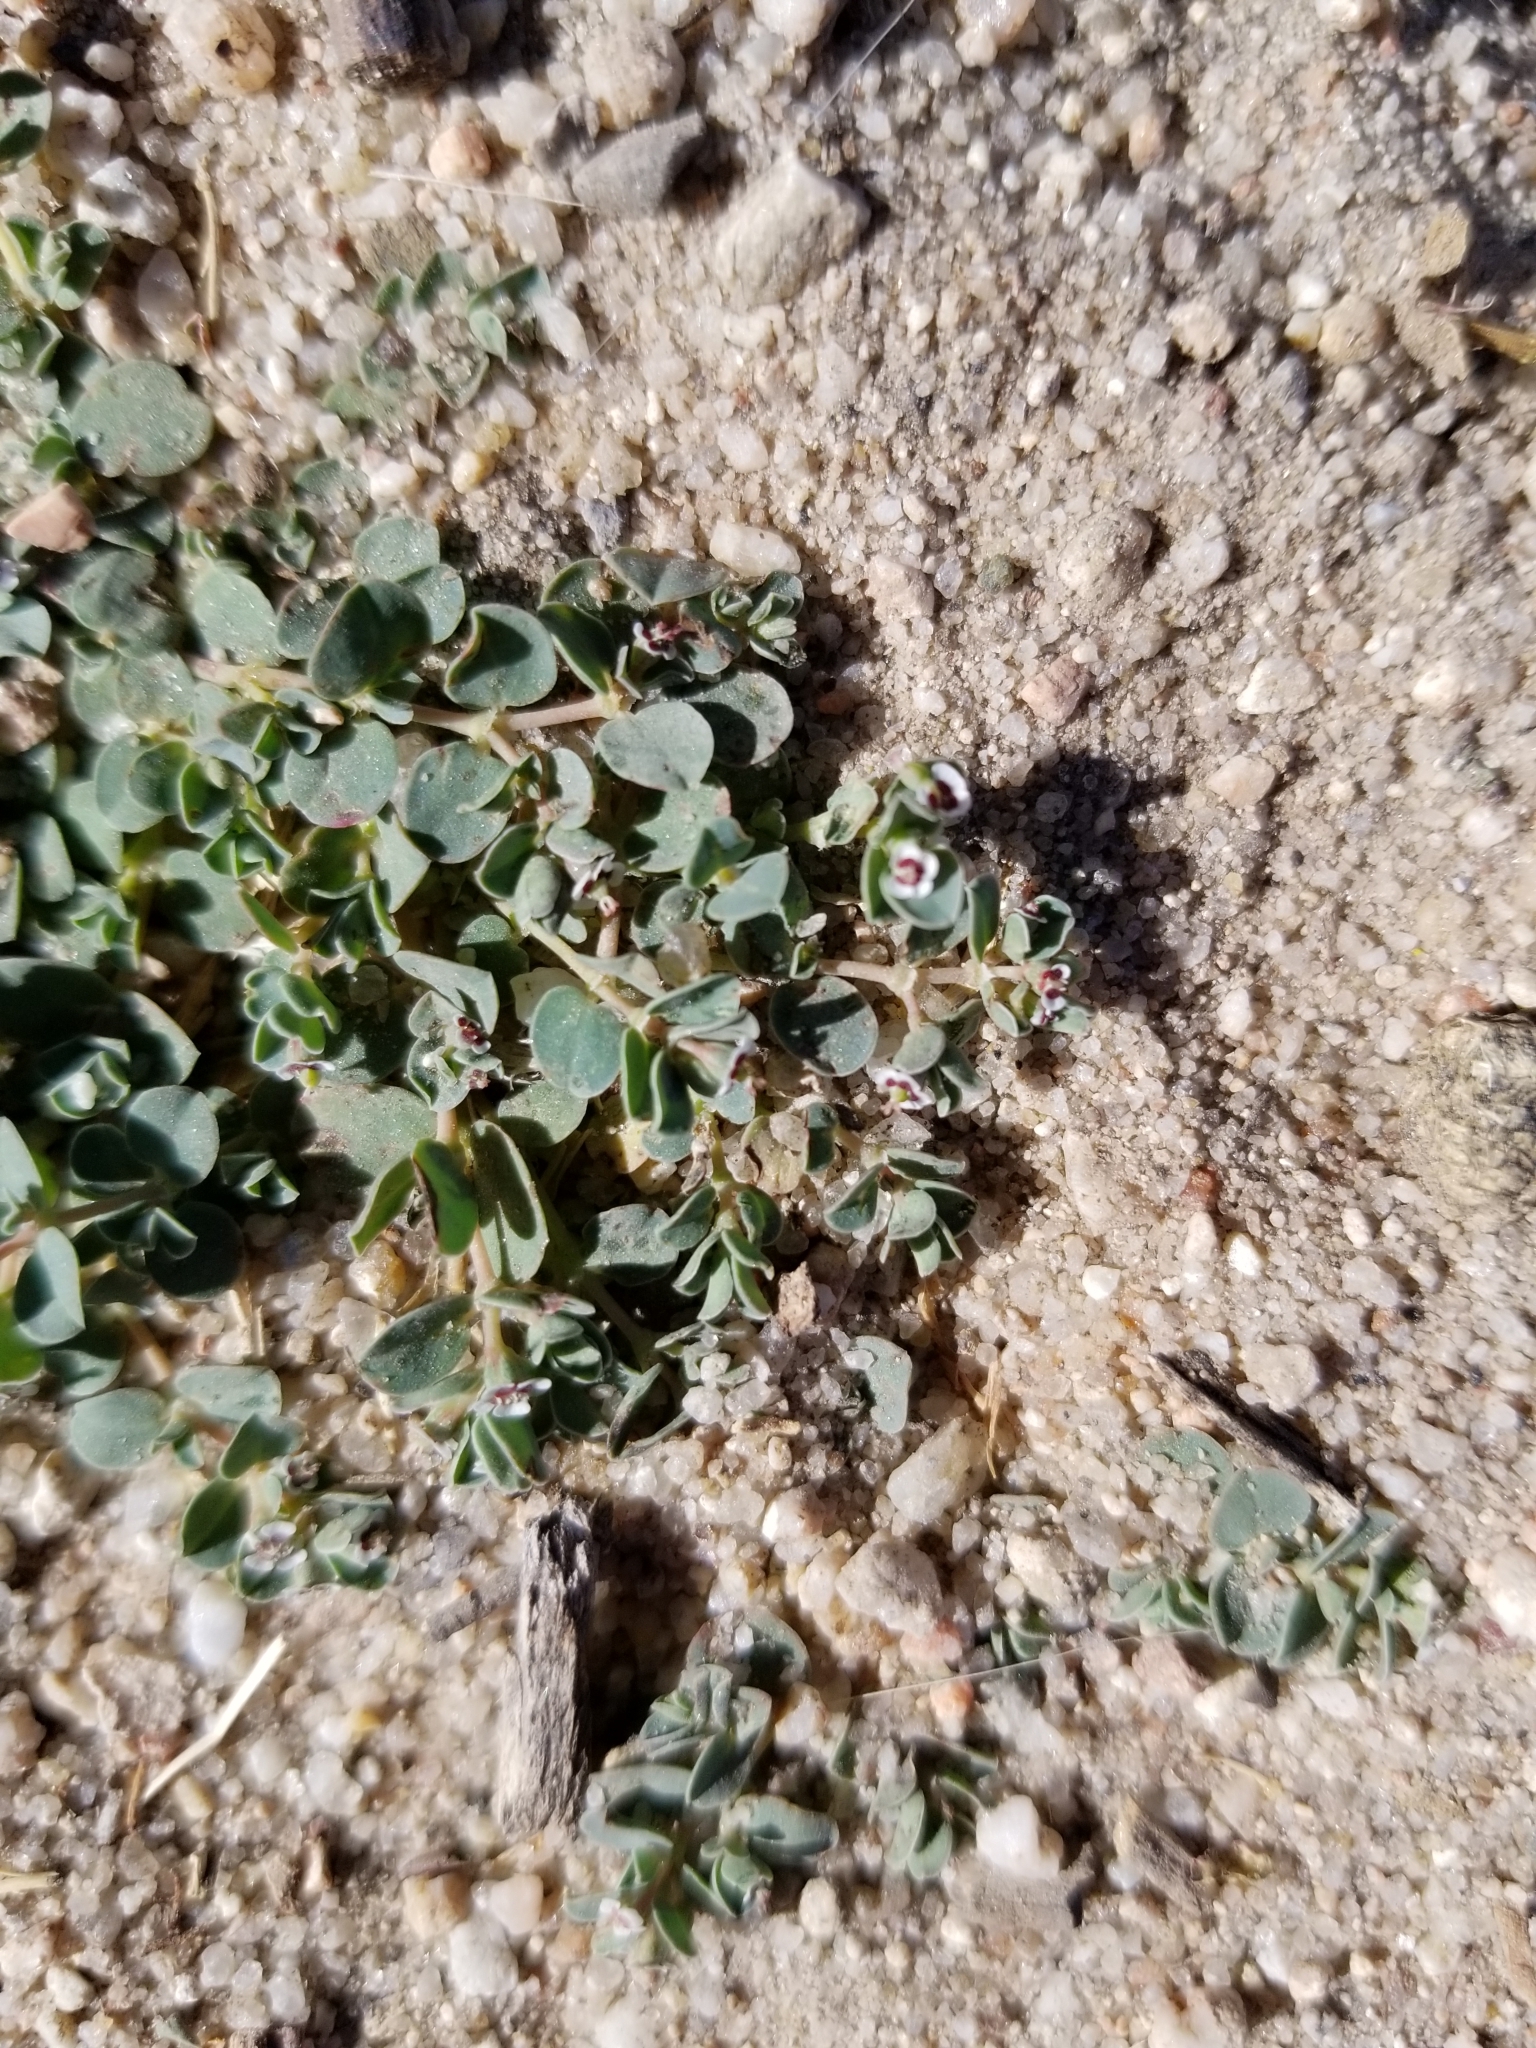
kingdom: Plantae
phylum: Tracheophyta
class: Magnoliopsida
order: Malpighiales
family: Euphorbiaceae
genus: Euphorbia
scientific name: Euphorbia albomarginata
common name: Whitemargin sandmat
